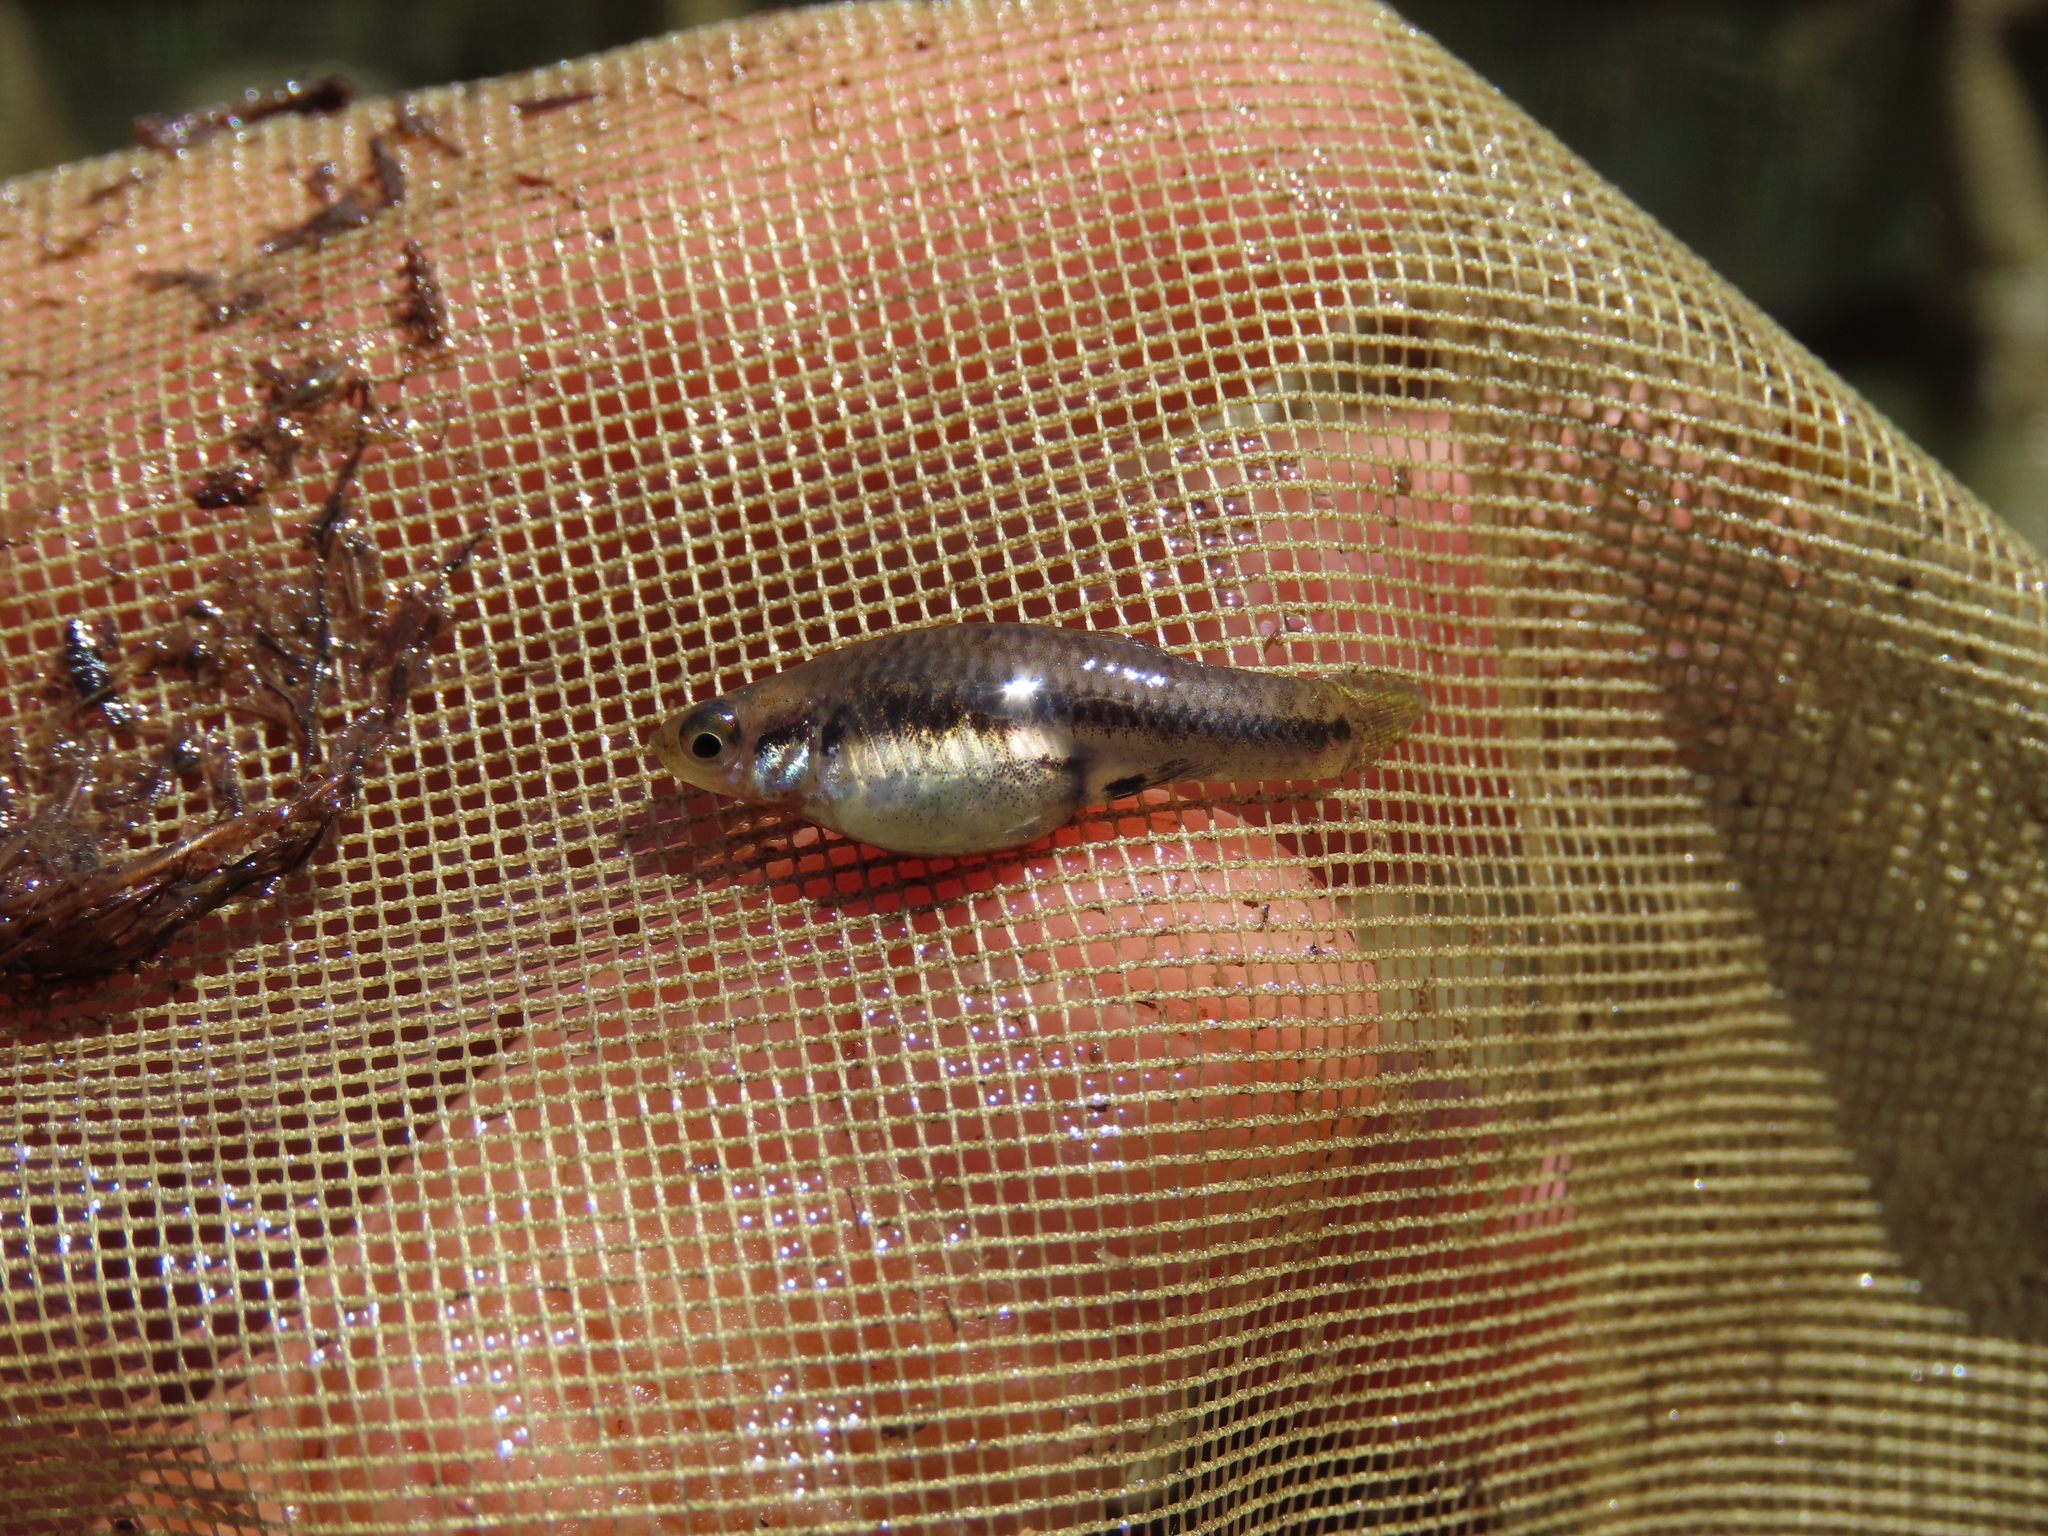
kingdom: Animalia
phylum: Chordata
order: Cyprinodontiformes
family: Poeciliidae
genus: Heterandria
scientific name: Heterandria formosa
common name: Least killifish
